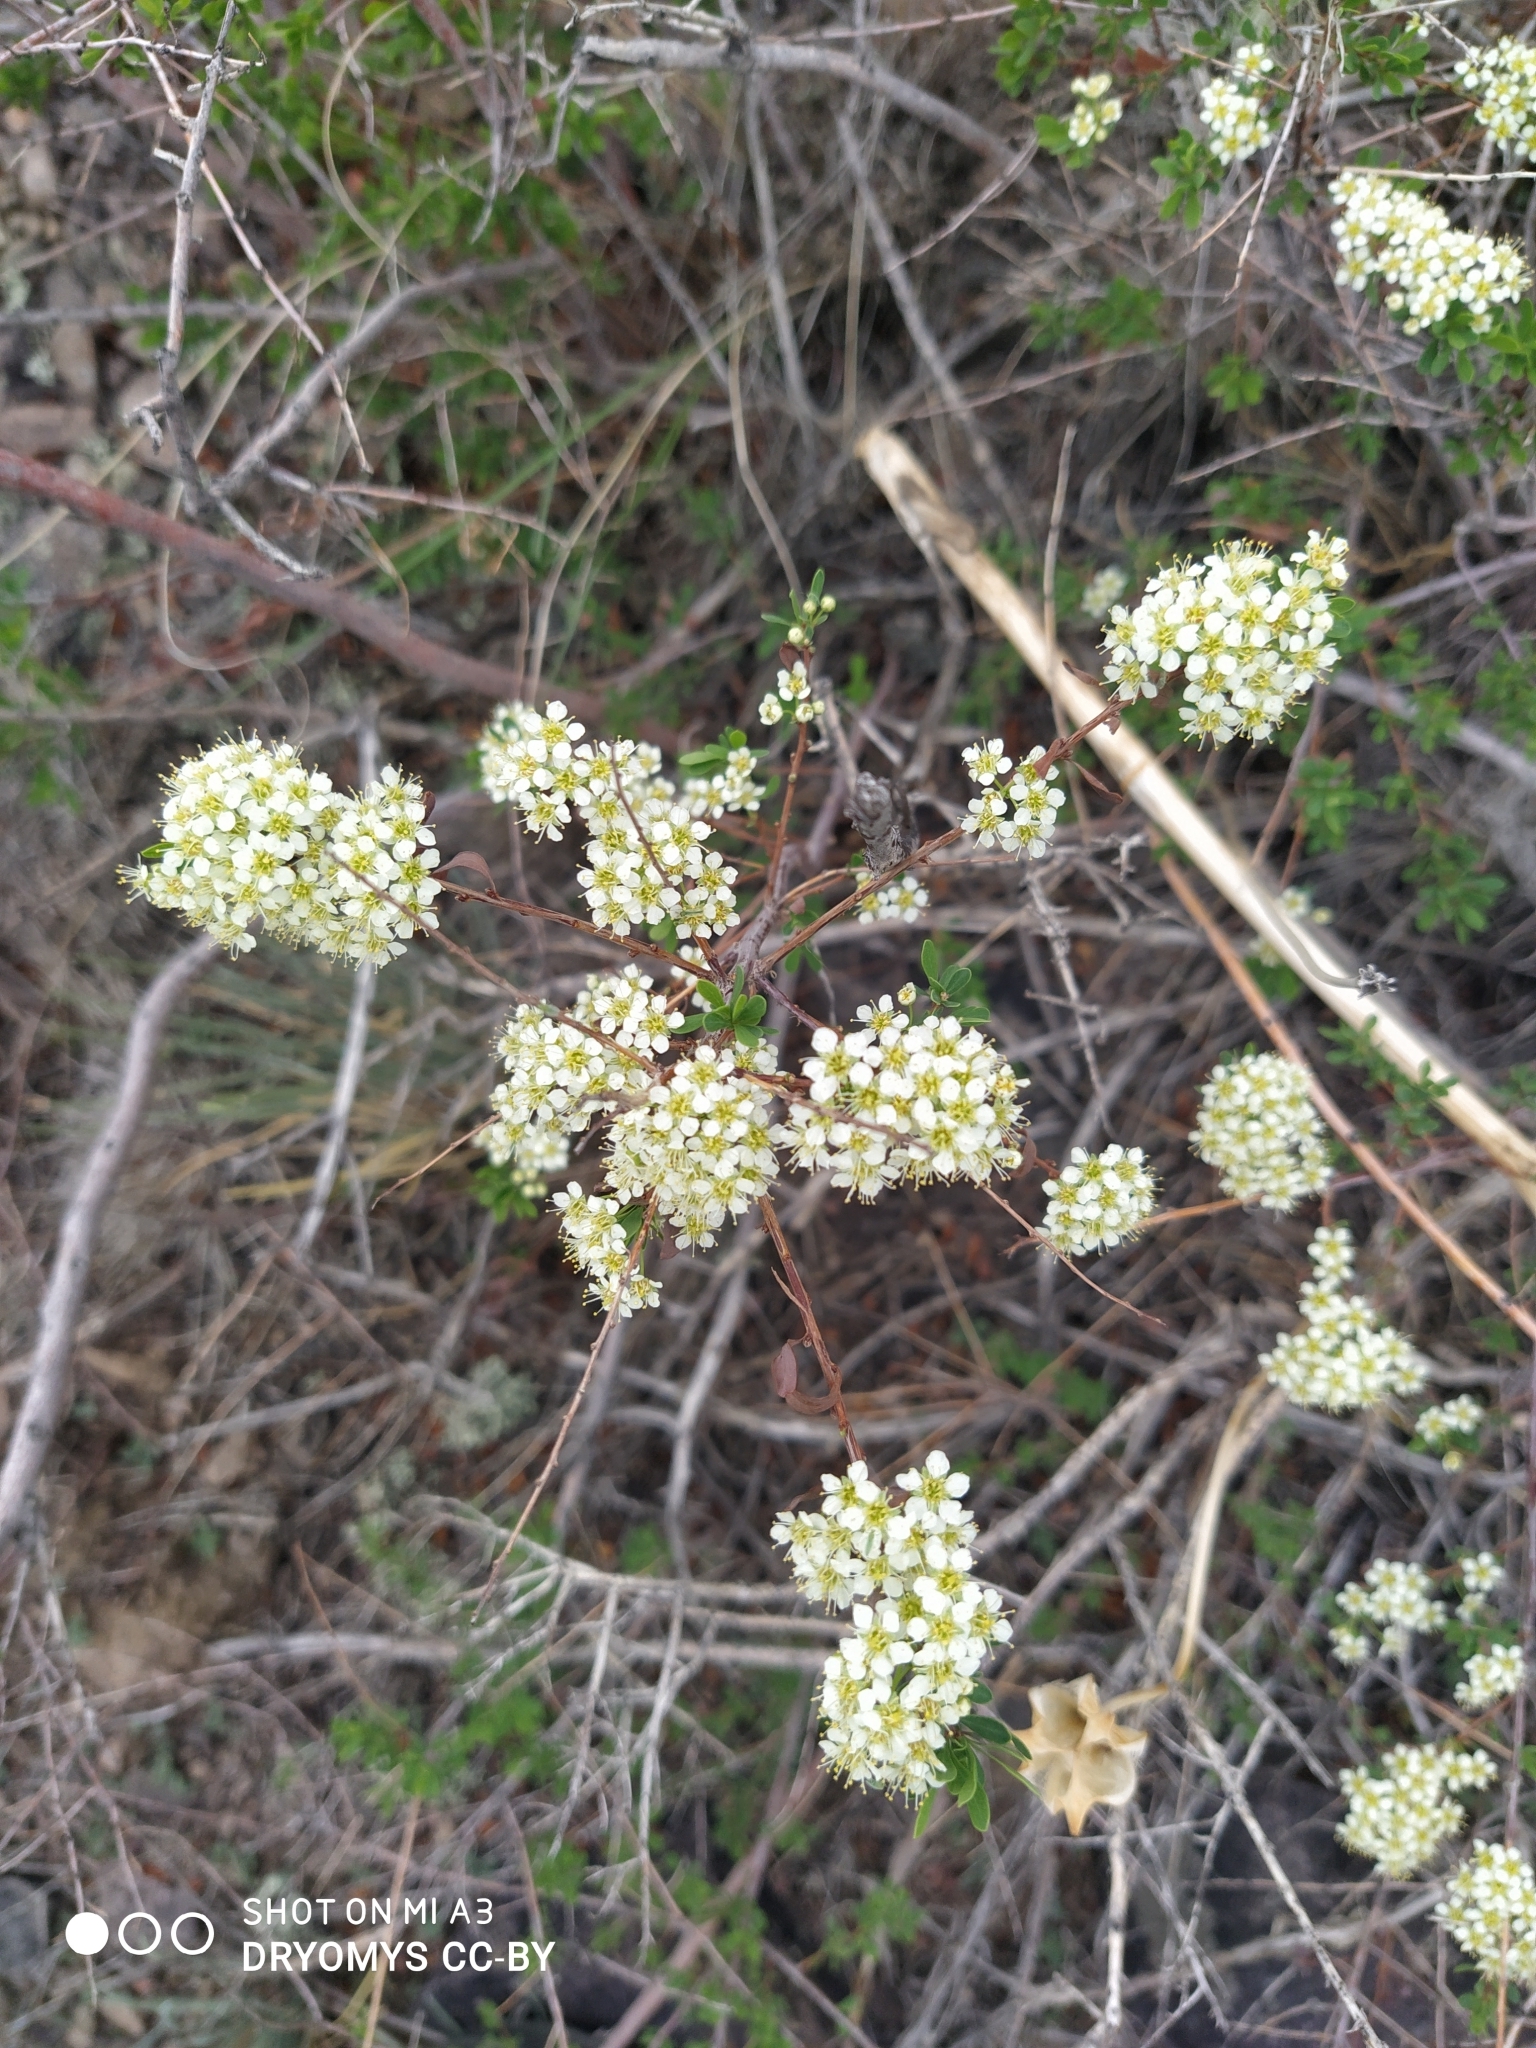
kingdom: Plantae
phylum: Tracheophyta
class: Magnoliopsida
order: Rosales
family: Rosaceae
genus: Spiraea
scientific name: Spiraea hypericifolia
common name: Iberian spirea
